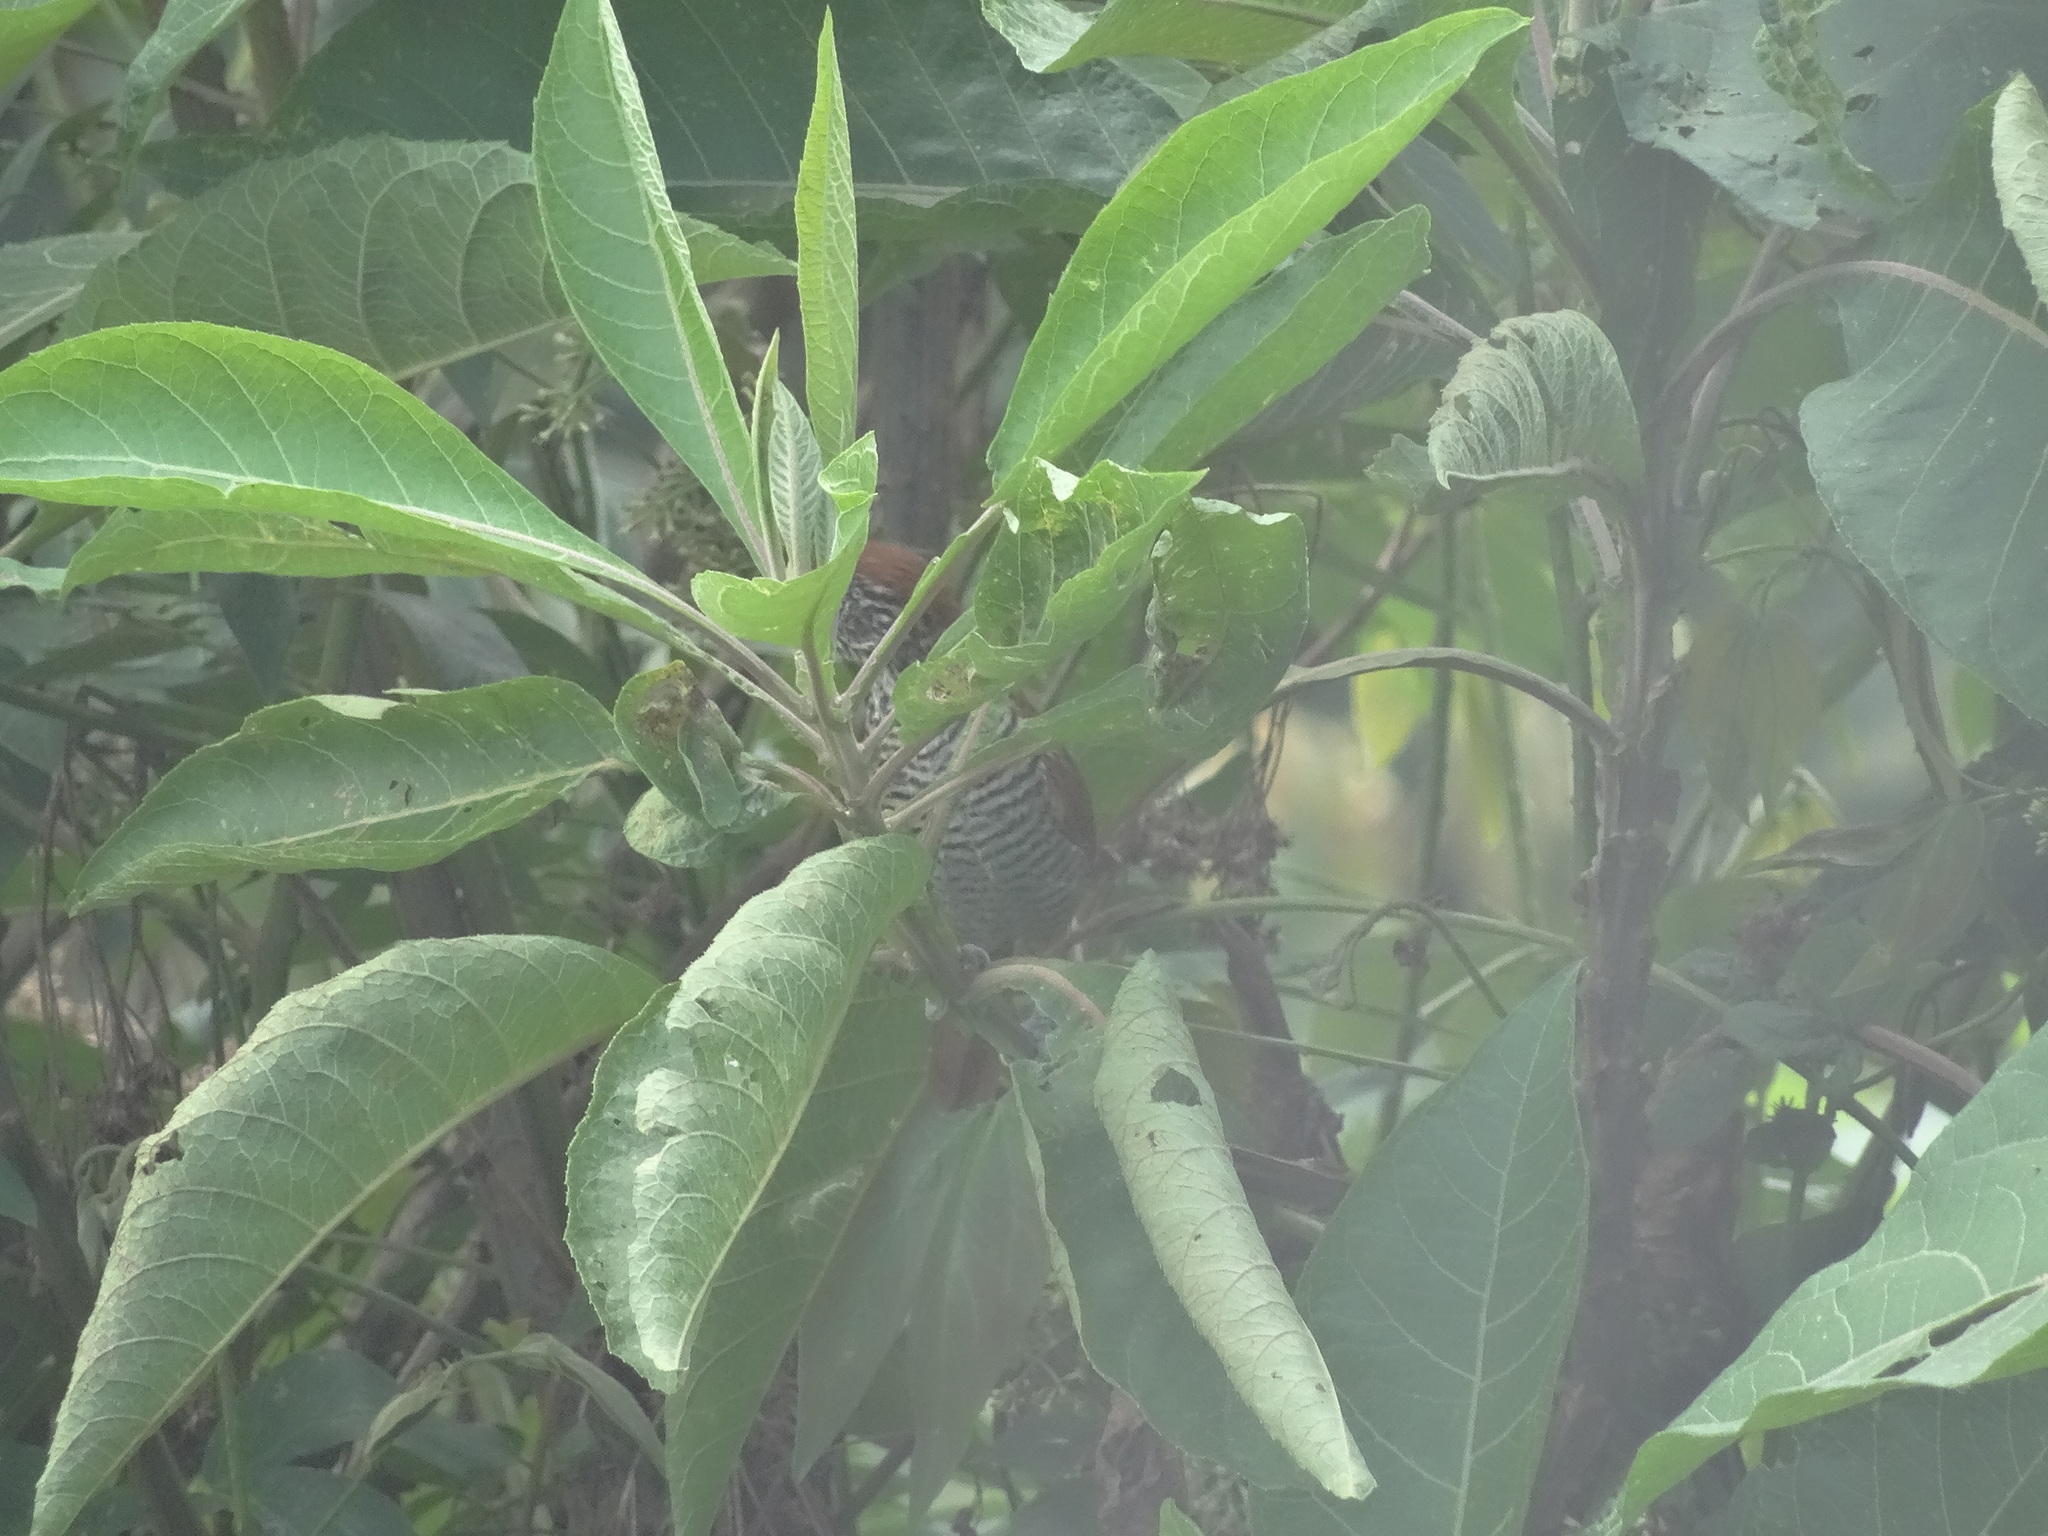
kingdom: Animalia
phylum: Chordata
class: Aves
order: Passeriformes
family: Thamnophilidae
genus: Thamnophilus
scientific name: Thamnophilus multistriatus
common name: Bar-crested antshrike
